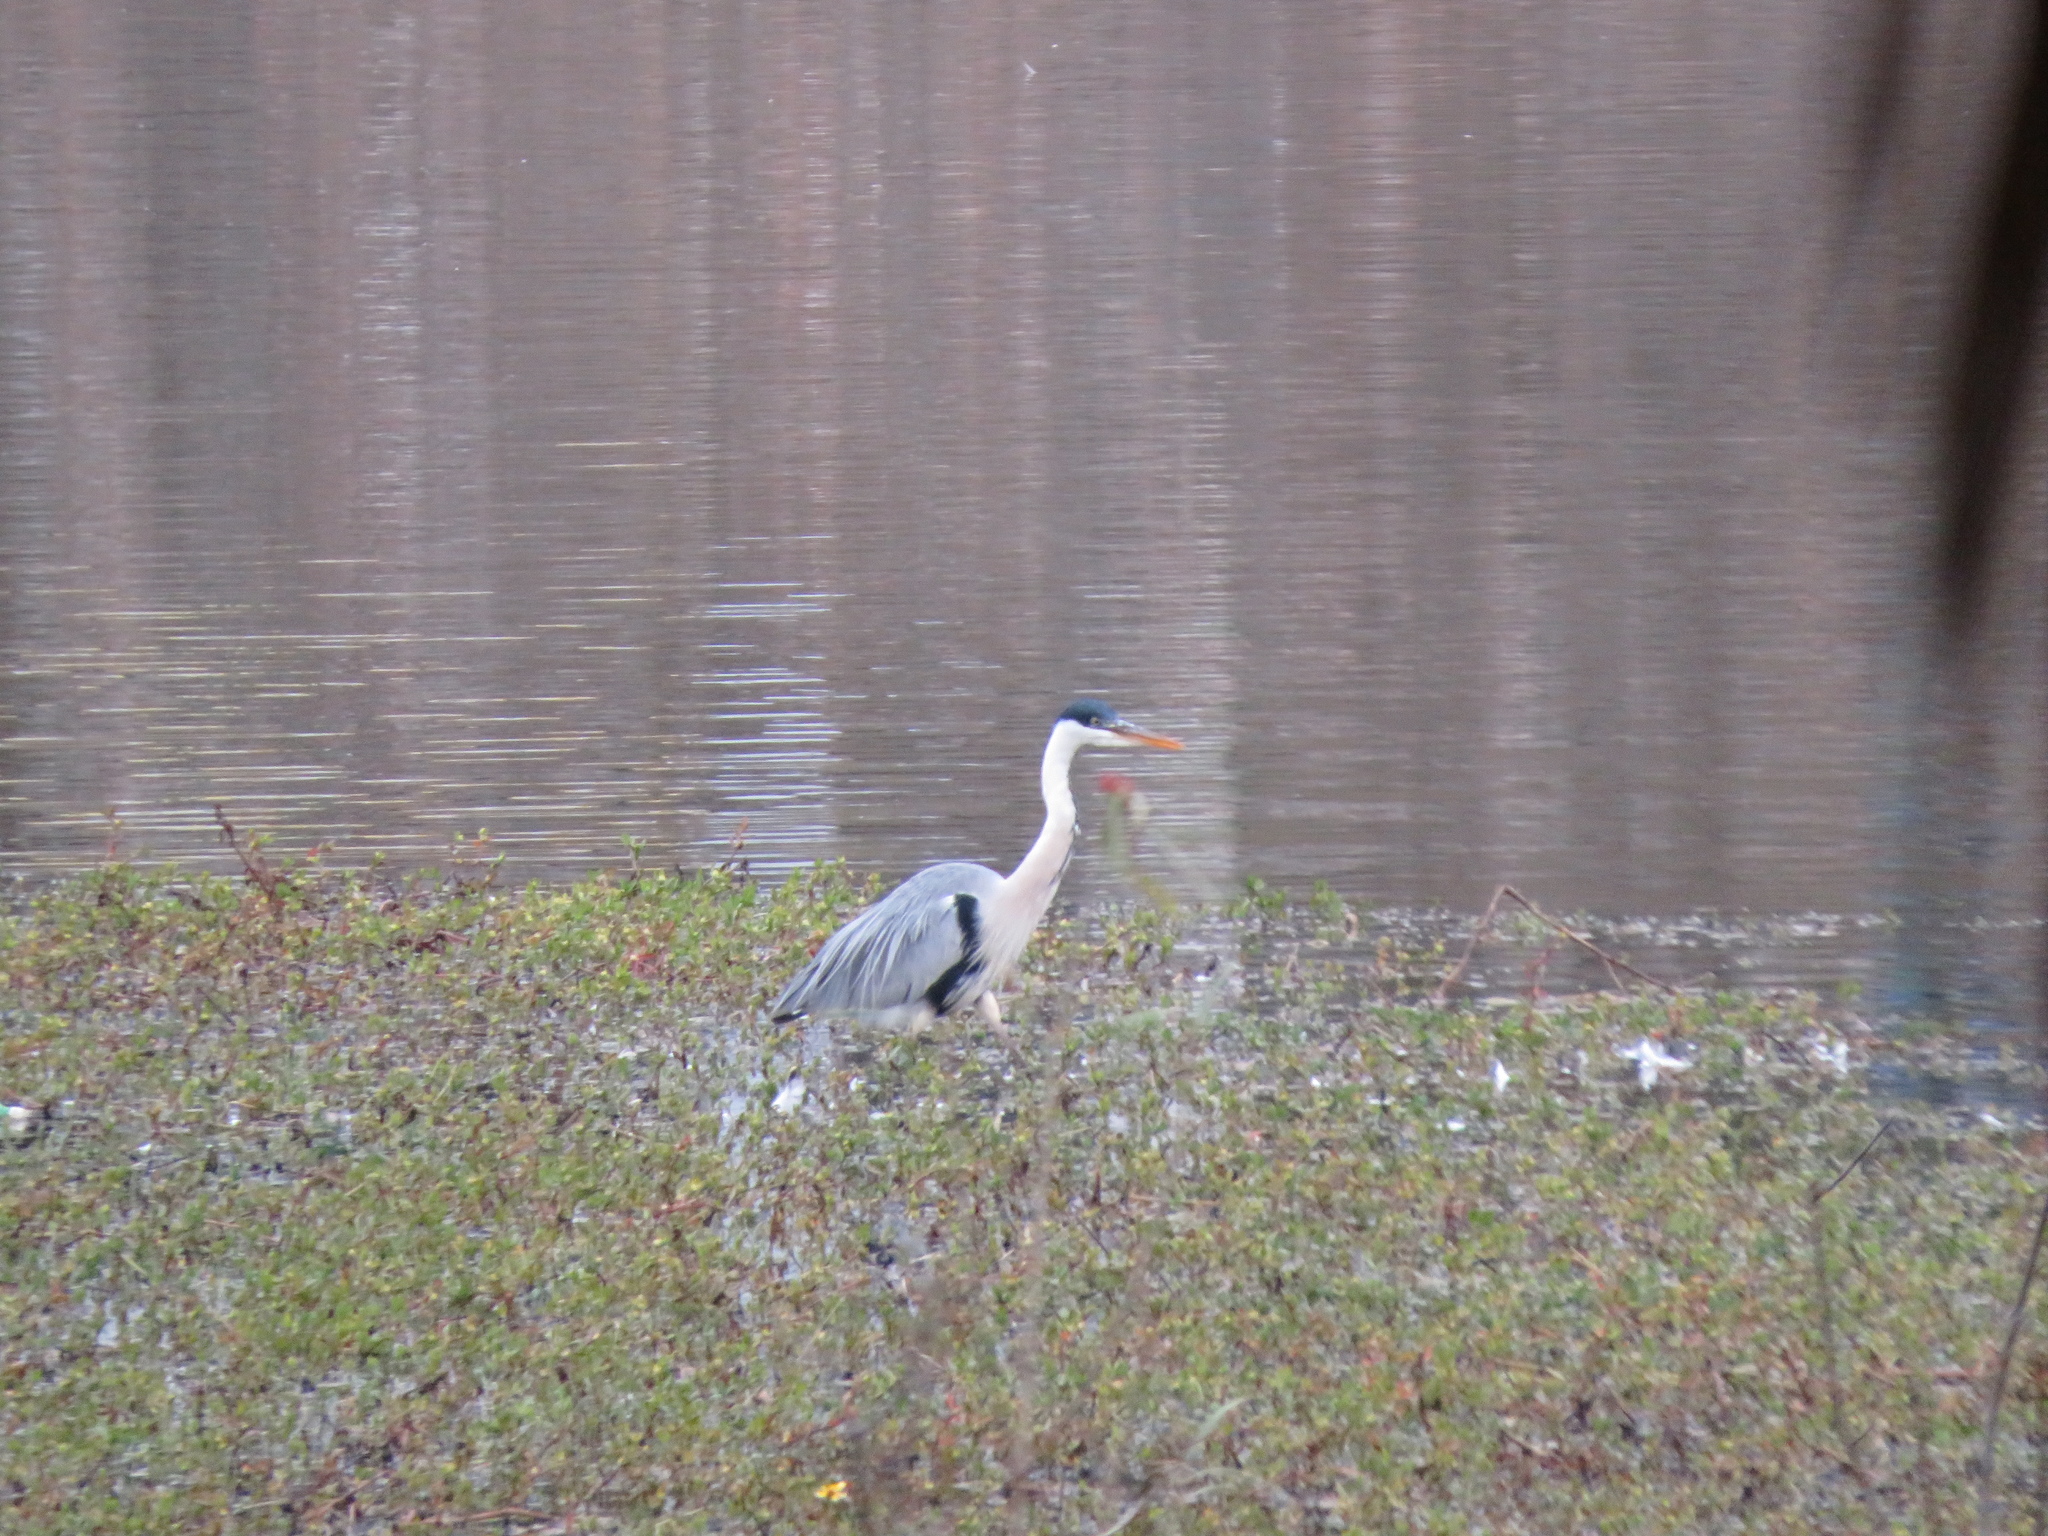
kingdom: Animalia
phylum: Chordata
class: Aves
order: Pelecaniformes
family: Ardeidae
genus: Ardea
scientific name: Ardea cocoi
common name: Cocoi heron
